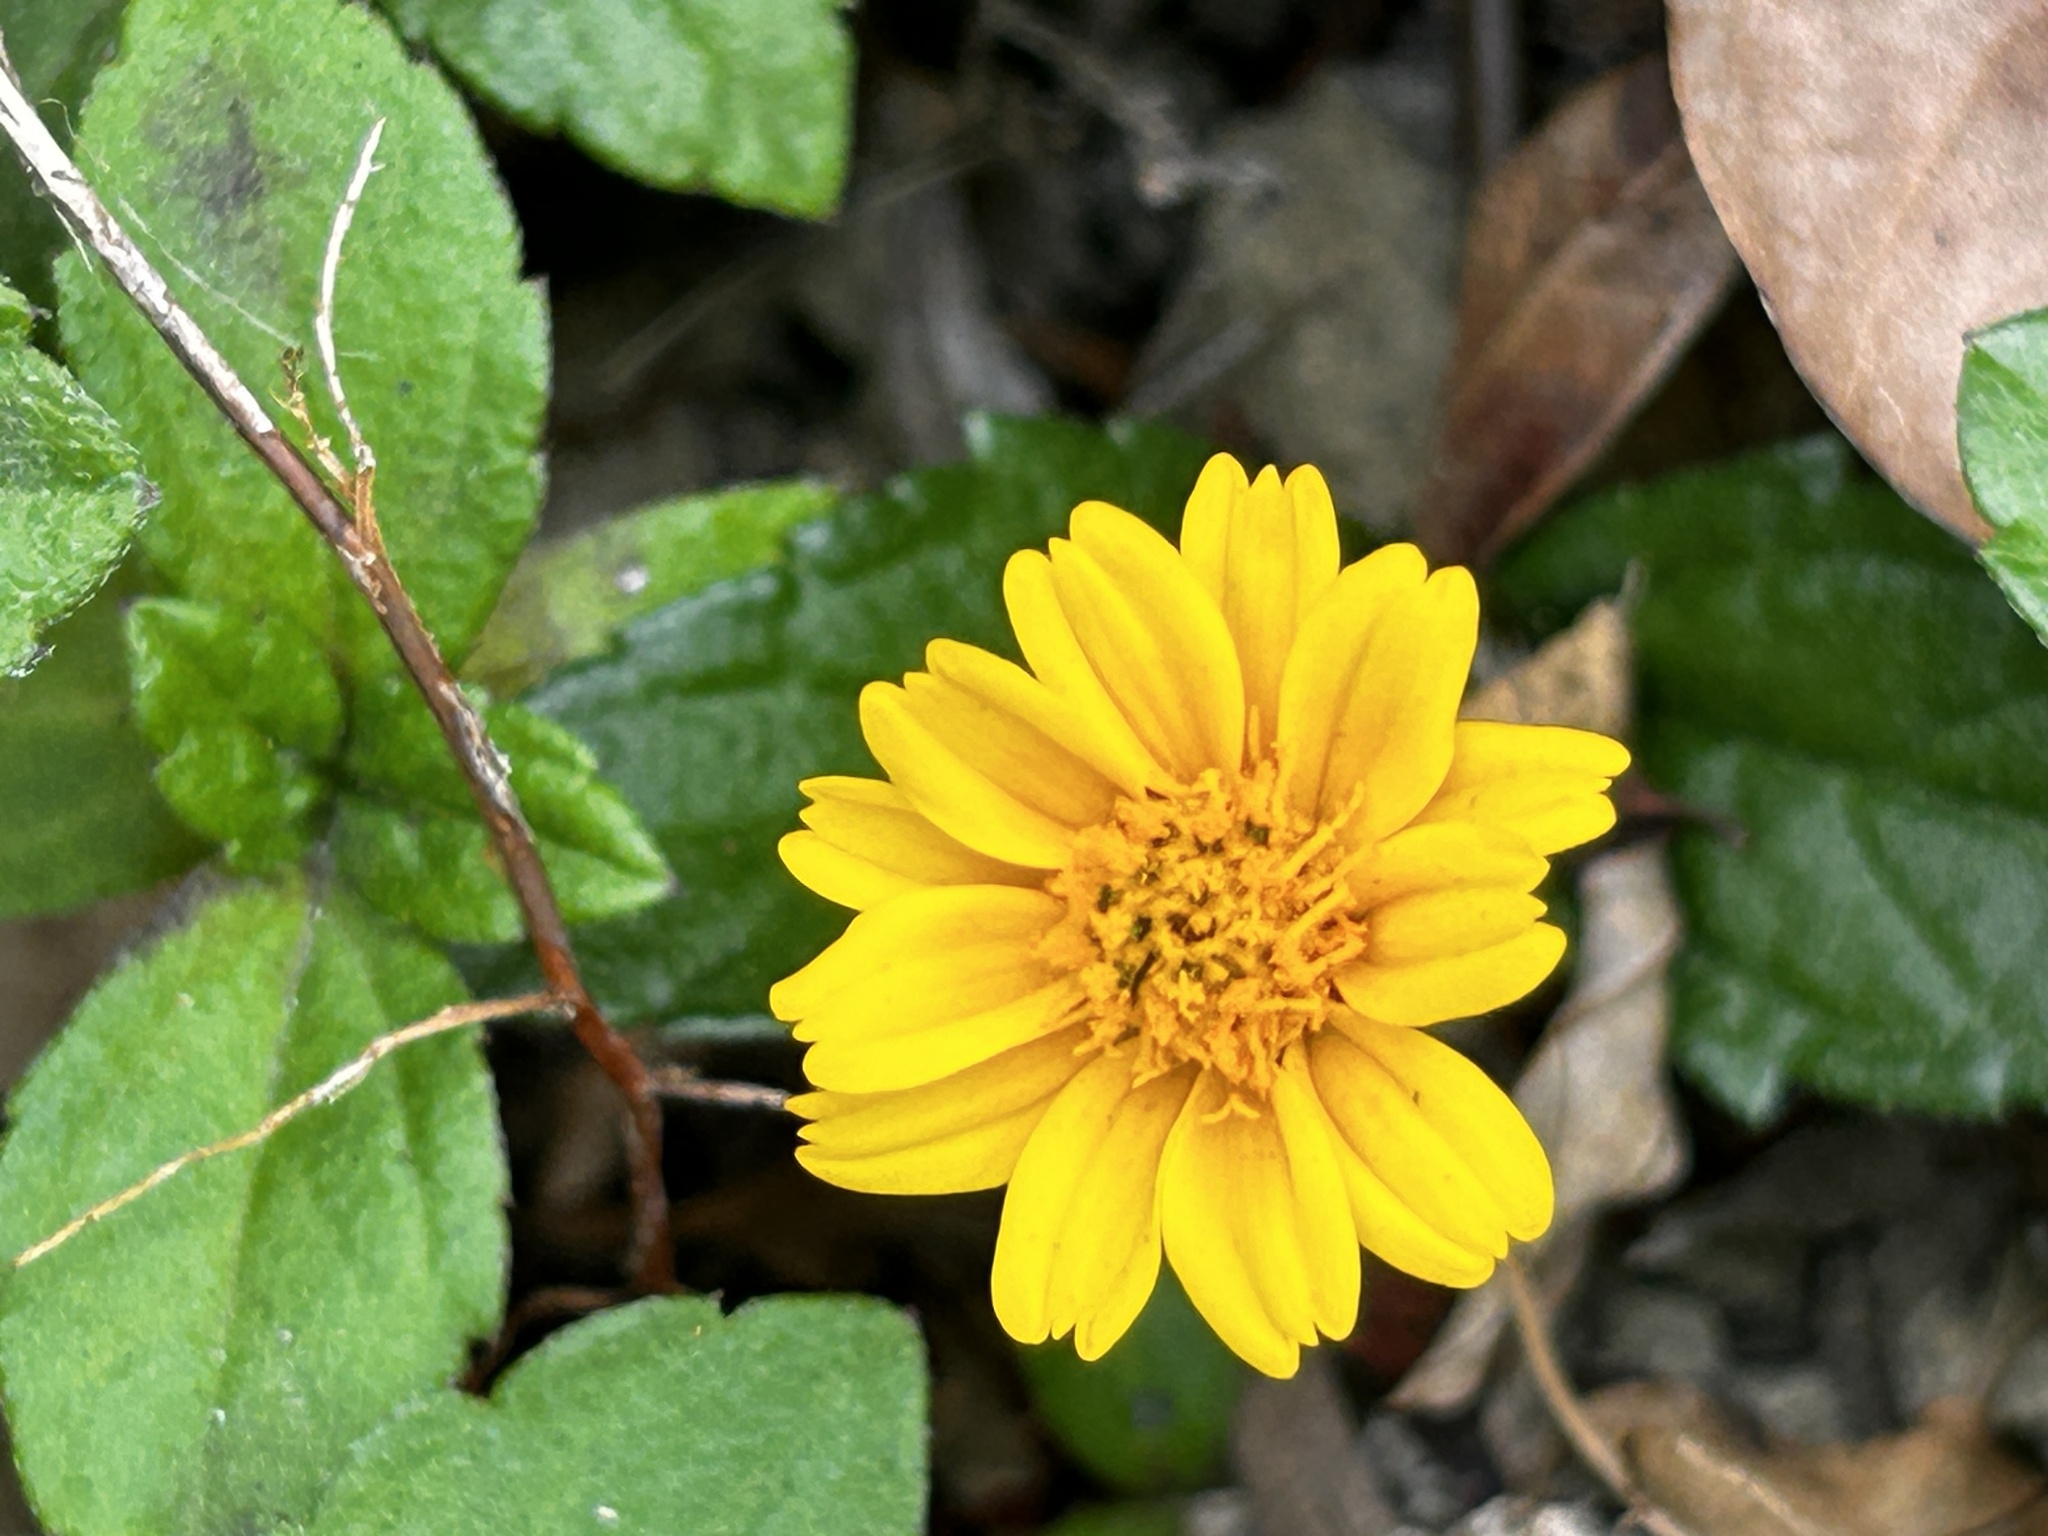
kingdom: Plantae
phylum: Tracheophyta
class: Magnoliopsida
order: Asterales
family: Asteraceae
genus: Sphagneticola
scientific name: Sphagneticola trilobata
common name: Bay biscayne creeping-oxeye
